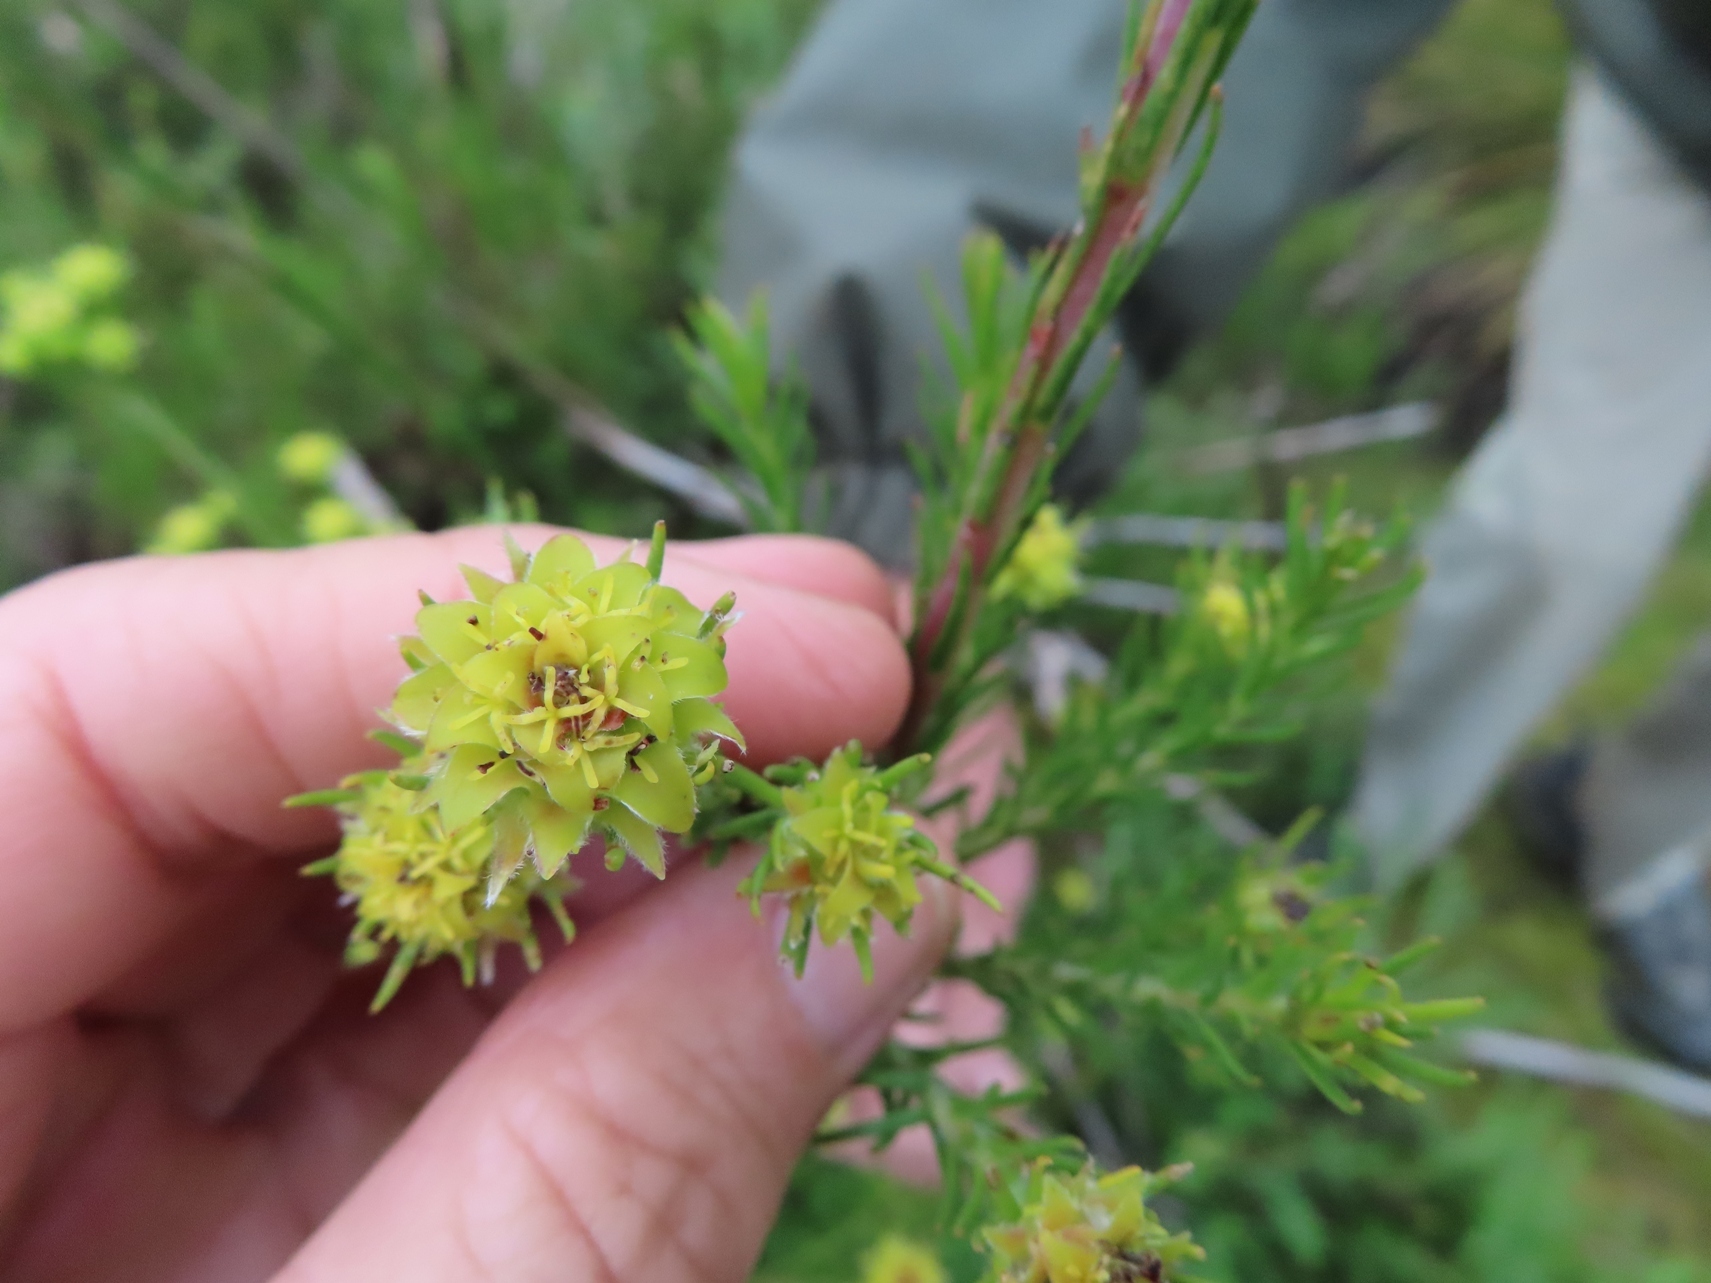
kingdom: Plantae
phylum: Tracheophyta
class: Magnoliopsida
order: Proteales
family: Proteaceae
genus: Leucadendron
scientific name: Leucadendron laxum
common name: Bredasdorp conebush
